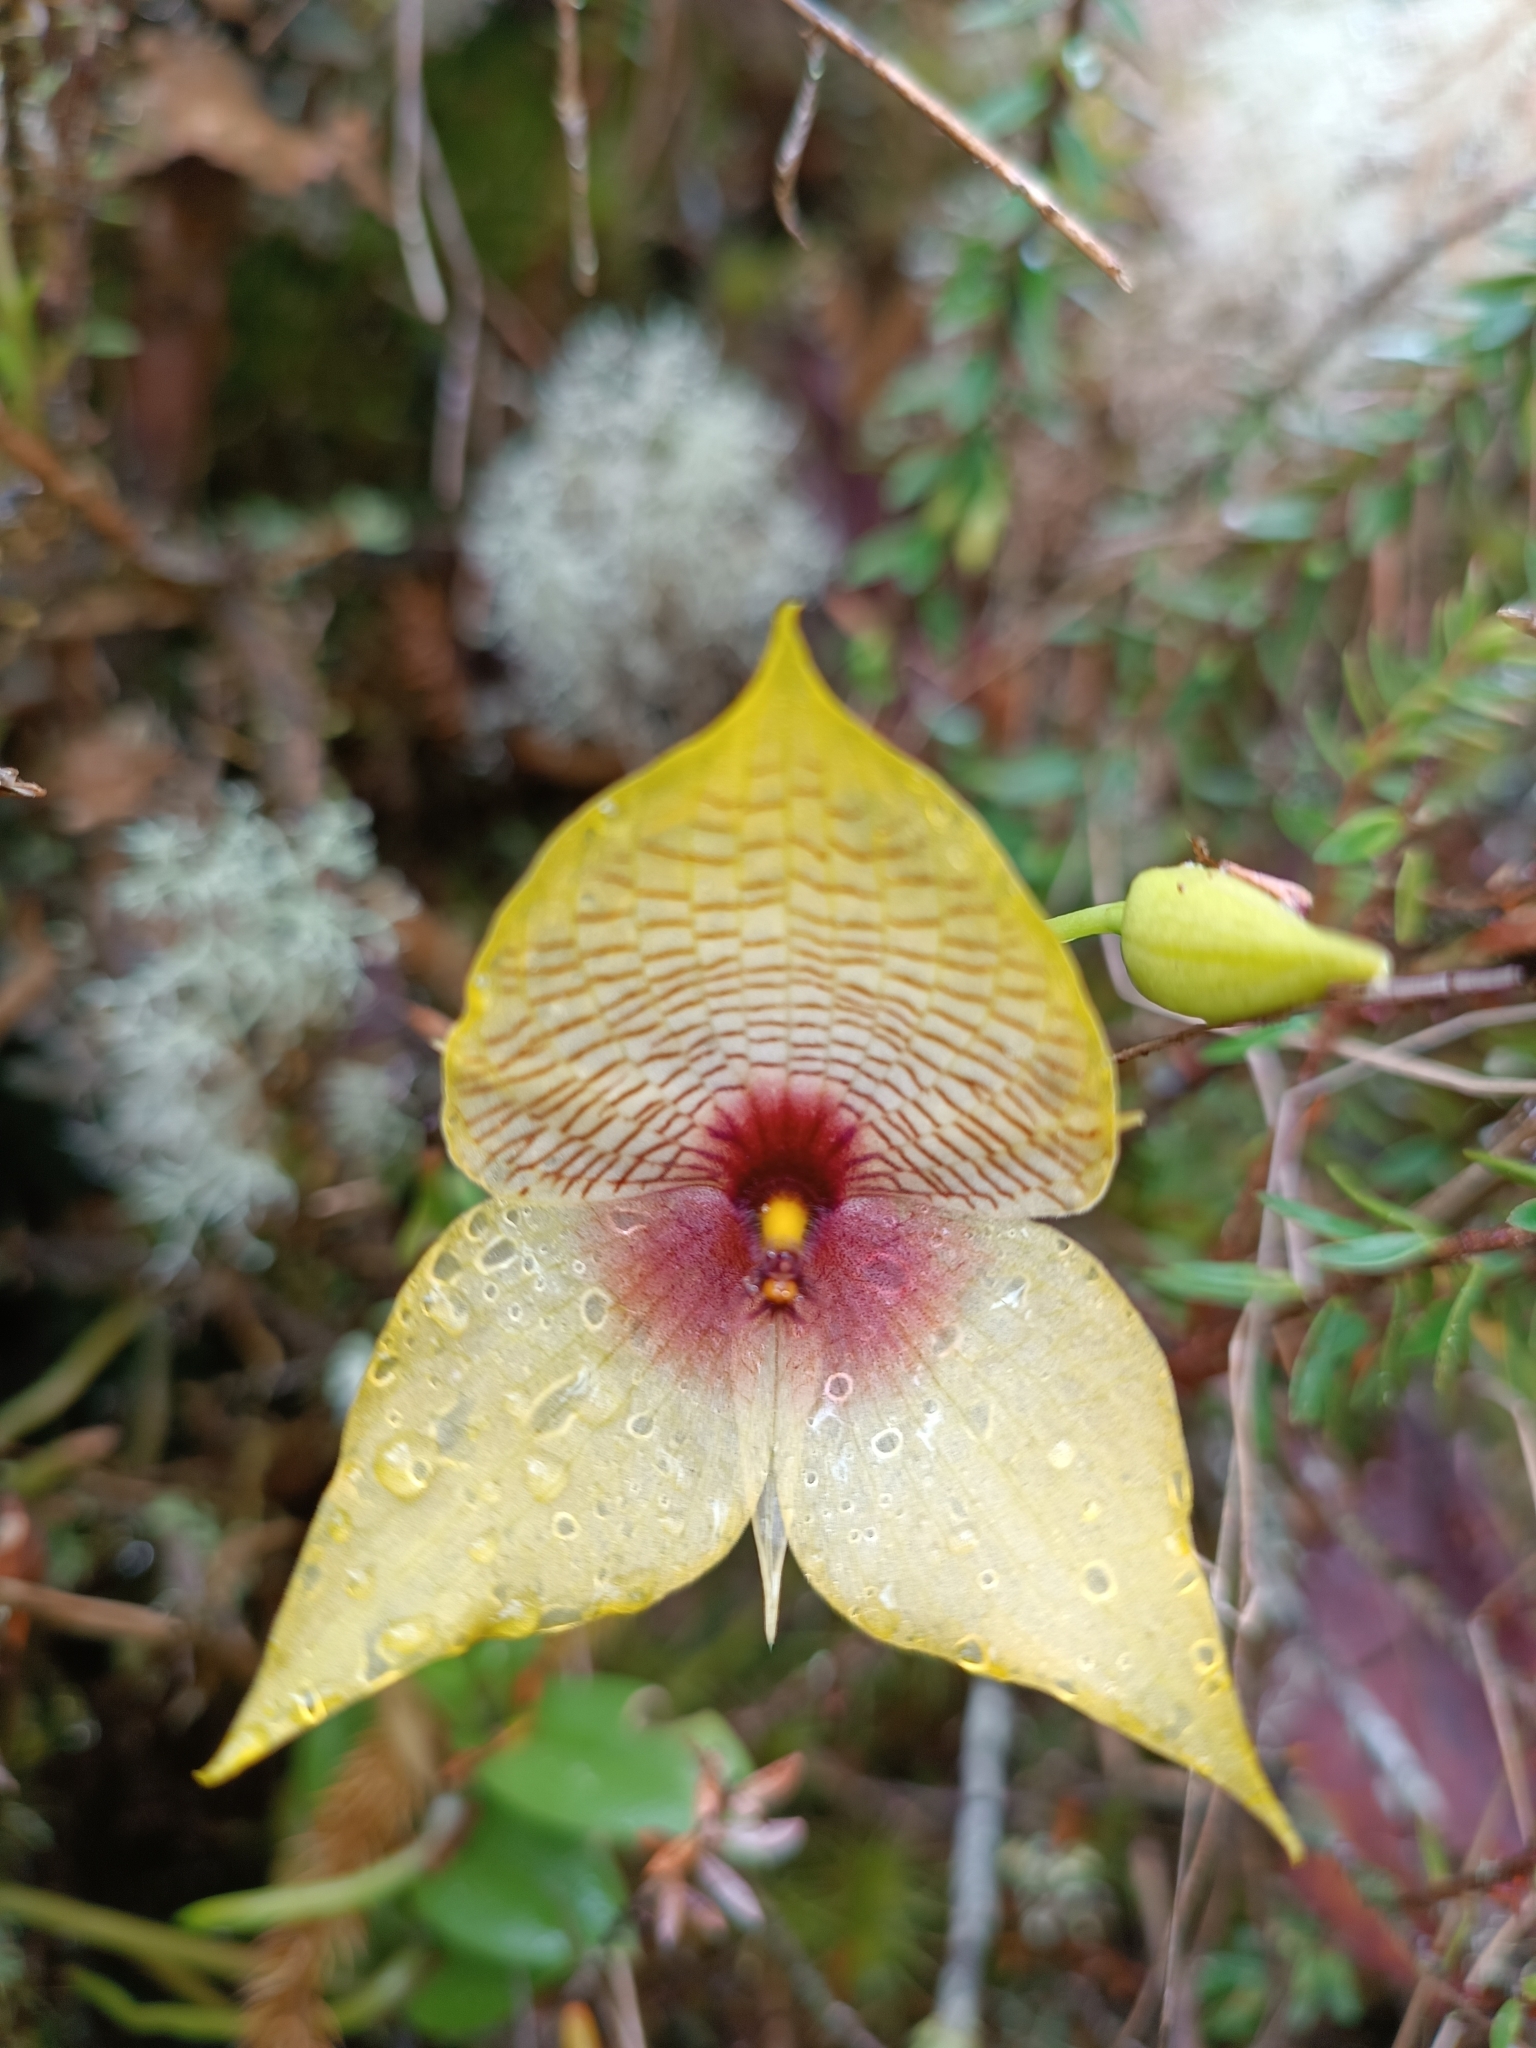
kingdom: Plantae
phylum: Tracheophyta
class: Liliopsida
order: Asparagales
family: Orchidaceae
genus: Telipogon
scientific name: Telipogon bowmanii
